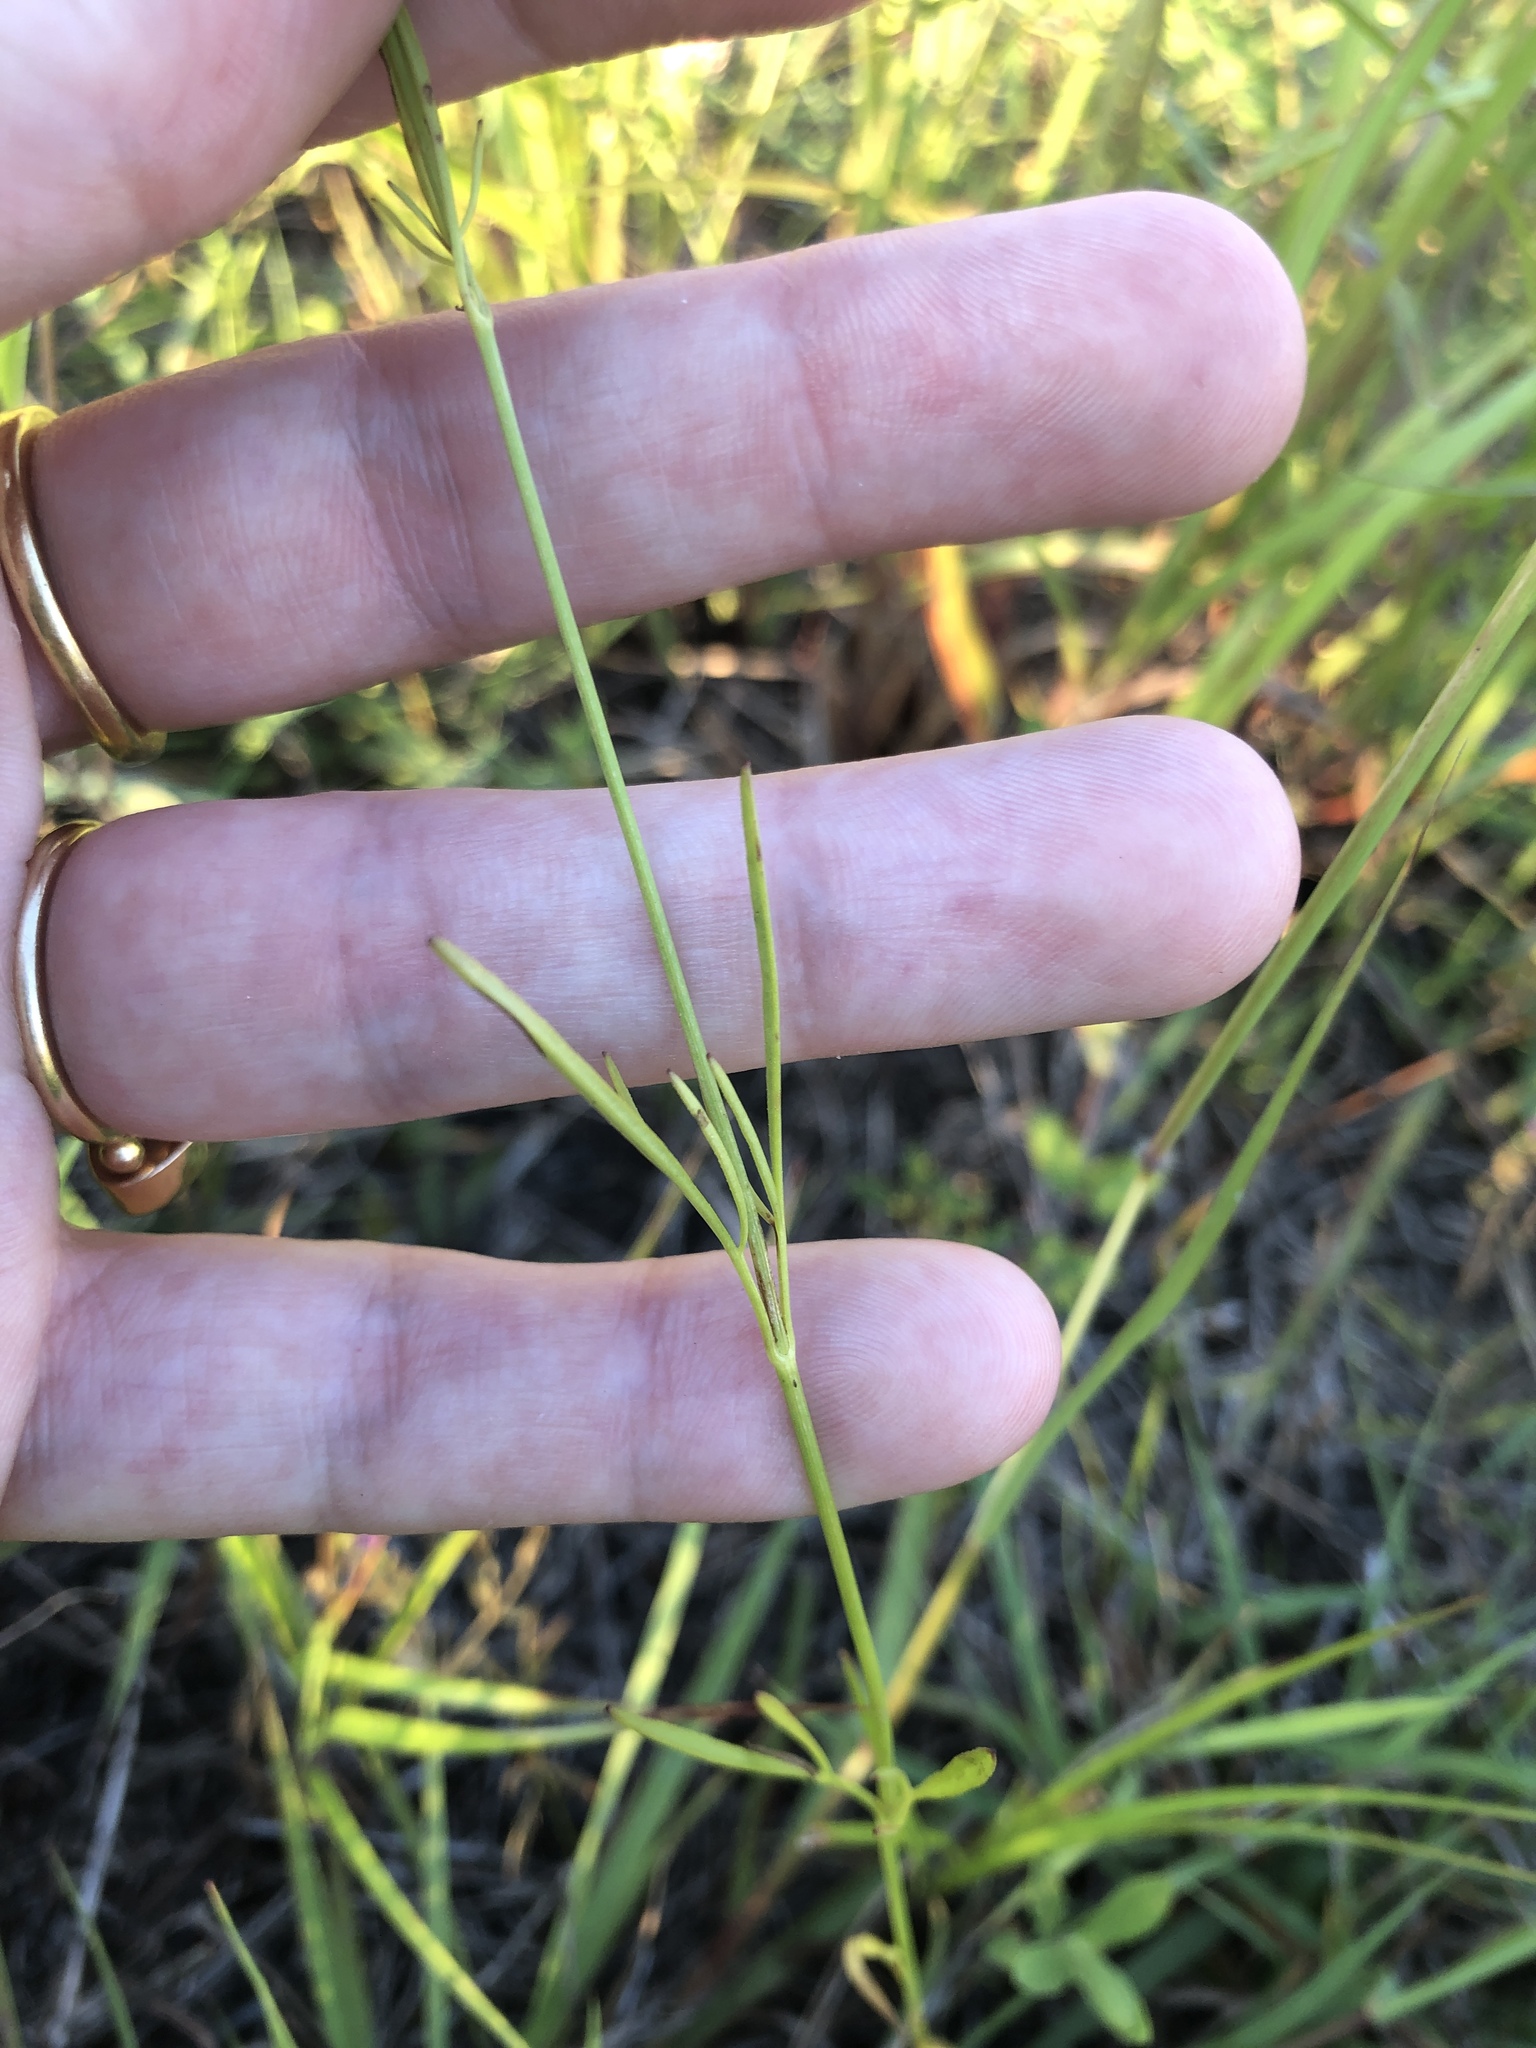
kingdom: Plantae
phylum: Tracheophyta
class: Magnoliopsida
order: Asterales
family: Asteraceae
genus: Coreopsis
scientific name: Coreopsis tinctoria
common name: Garden tickseed
